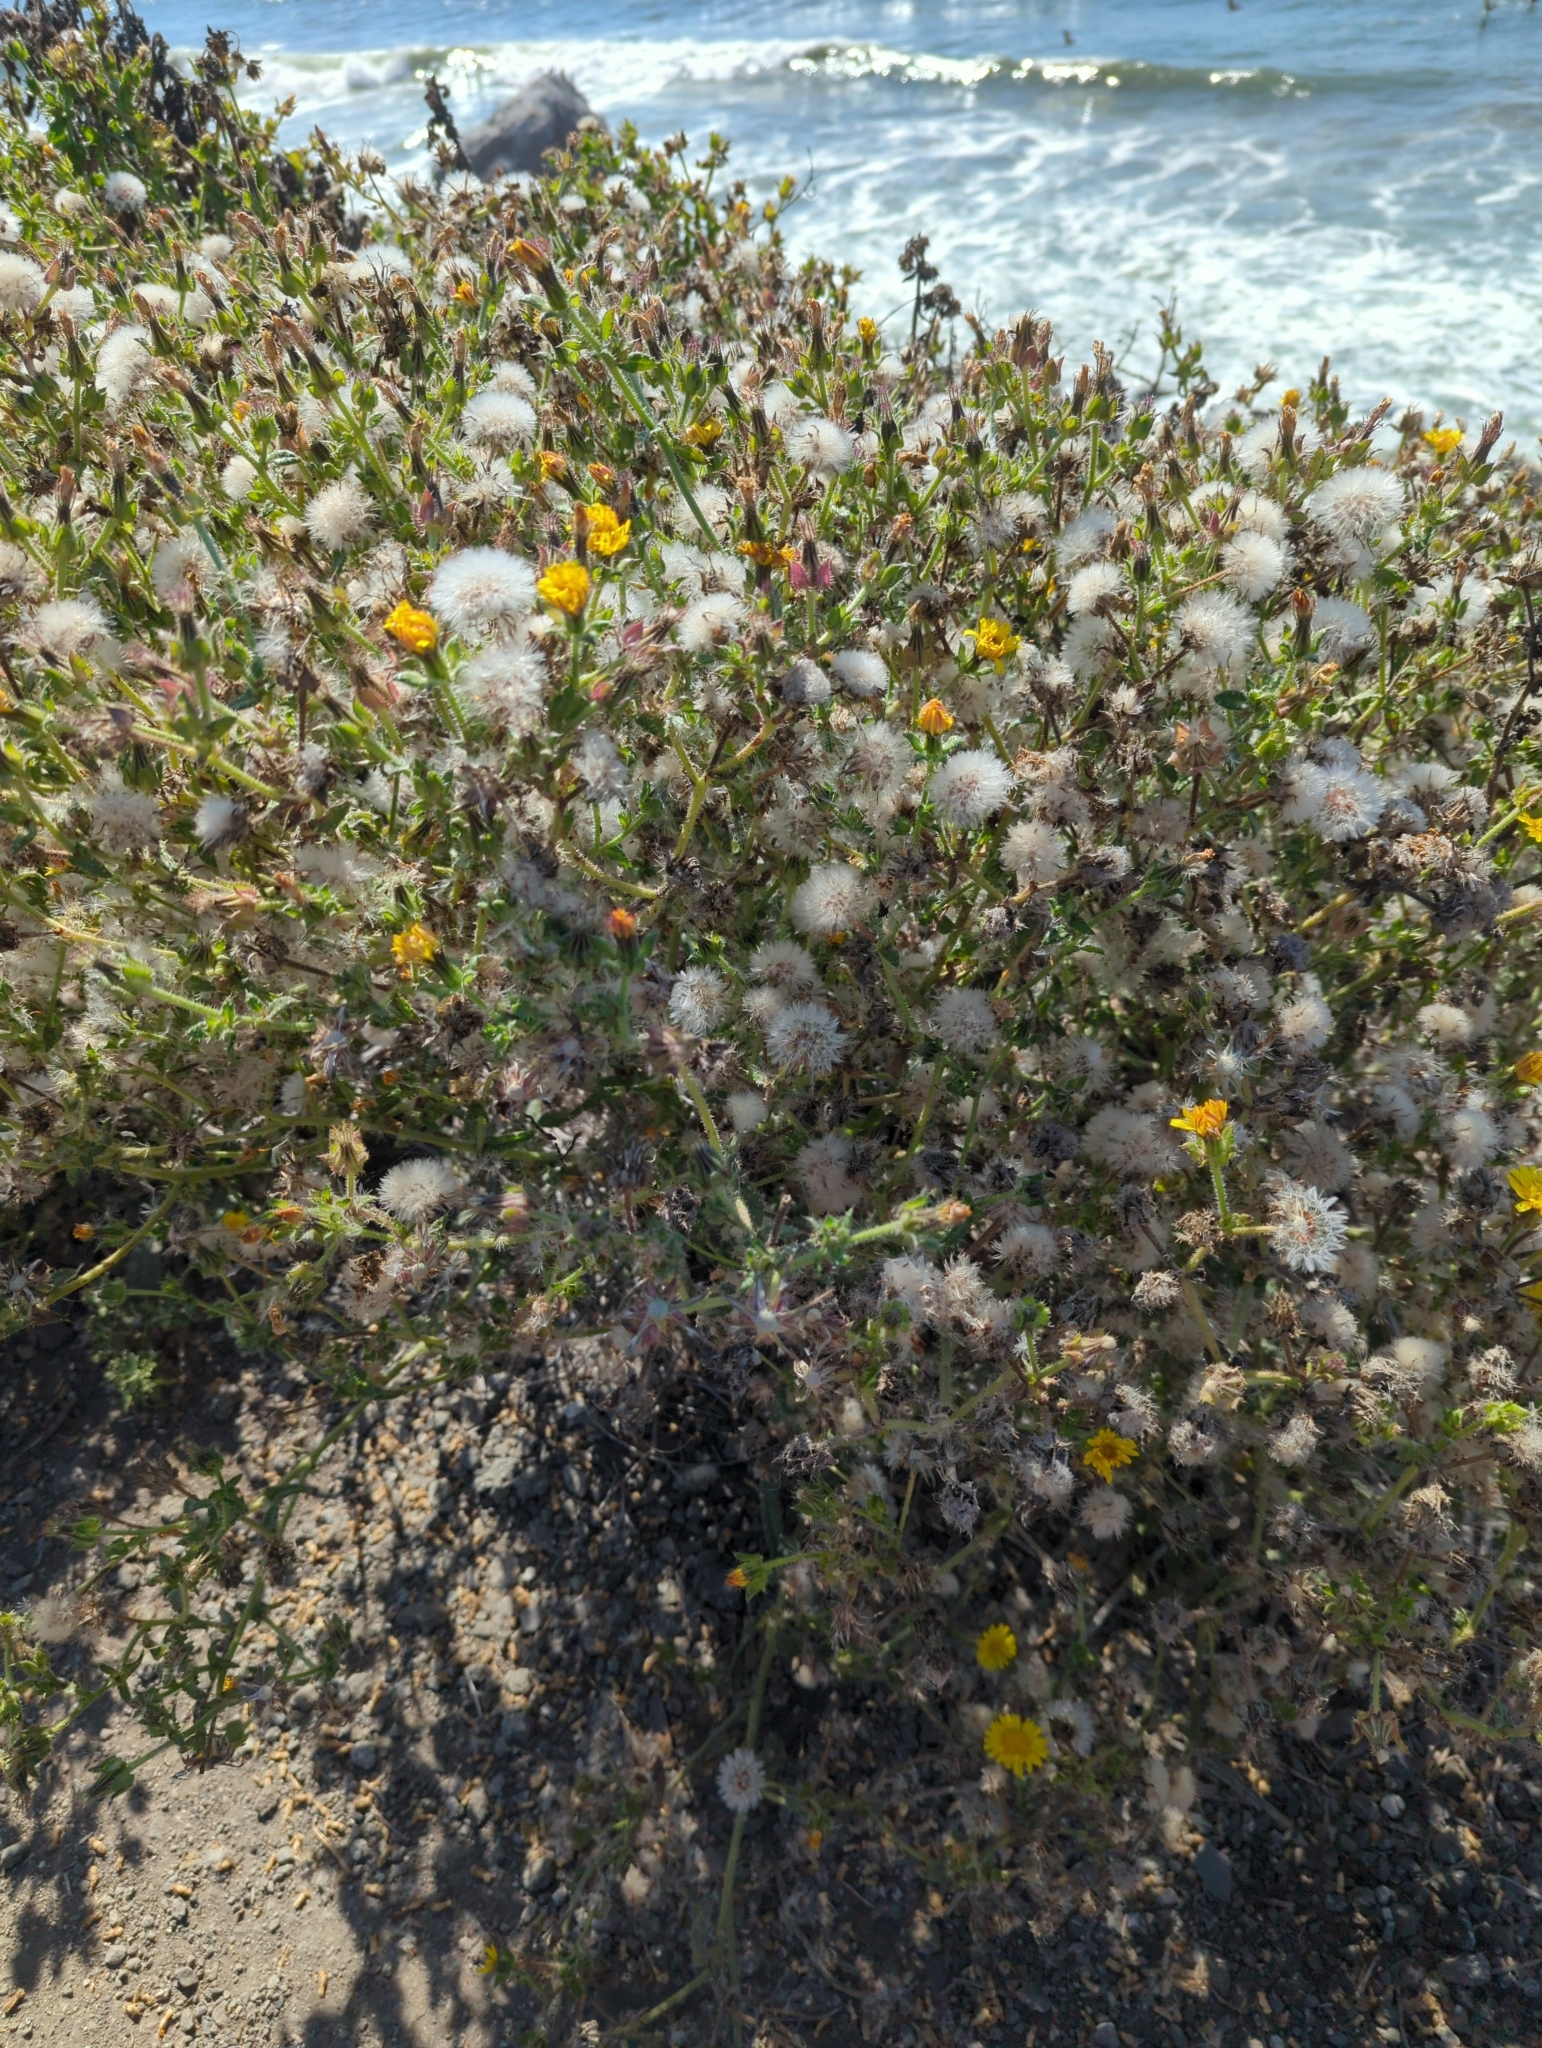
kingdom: Plantae
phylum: Tracheophyta
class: Magnoliopsida
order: Asterales
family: Asteraceae
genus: Helminthotheca
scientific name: Helminthotheca echioides
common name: Ox-tongue
